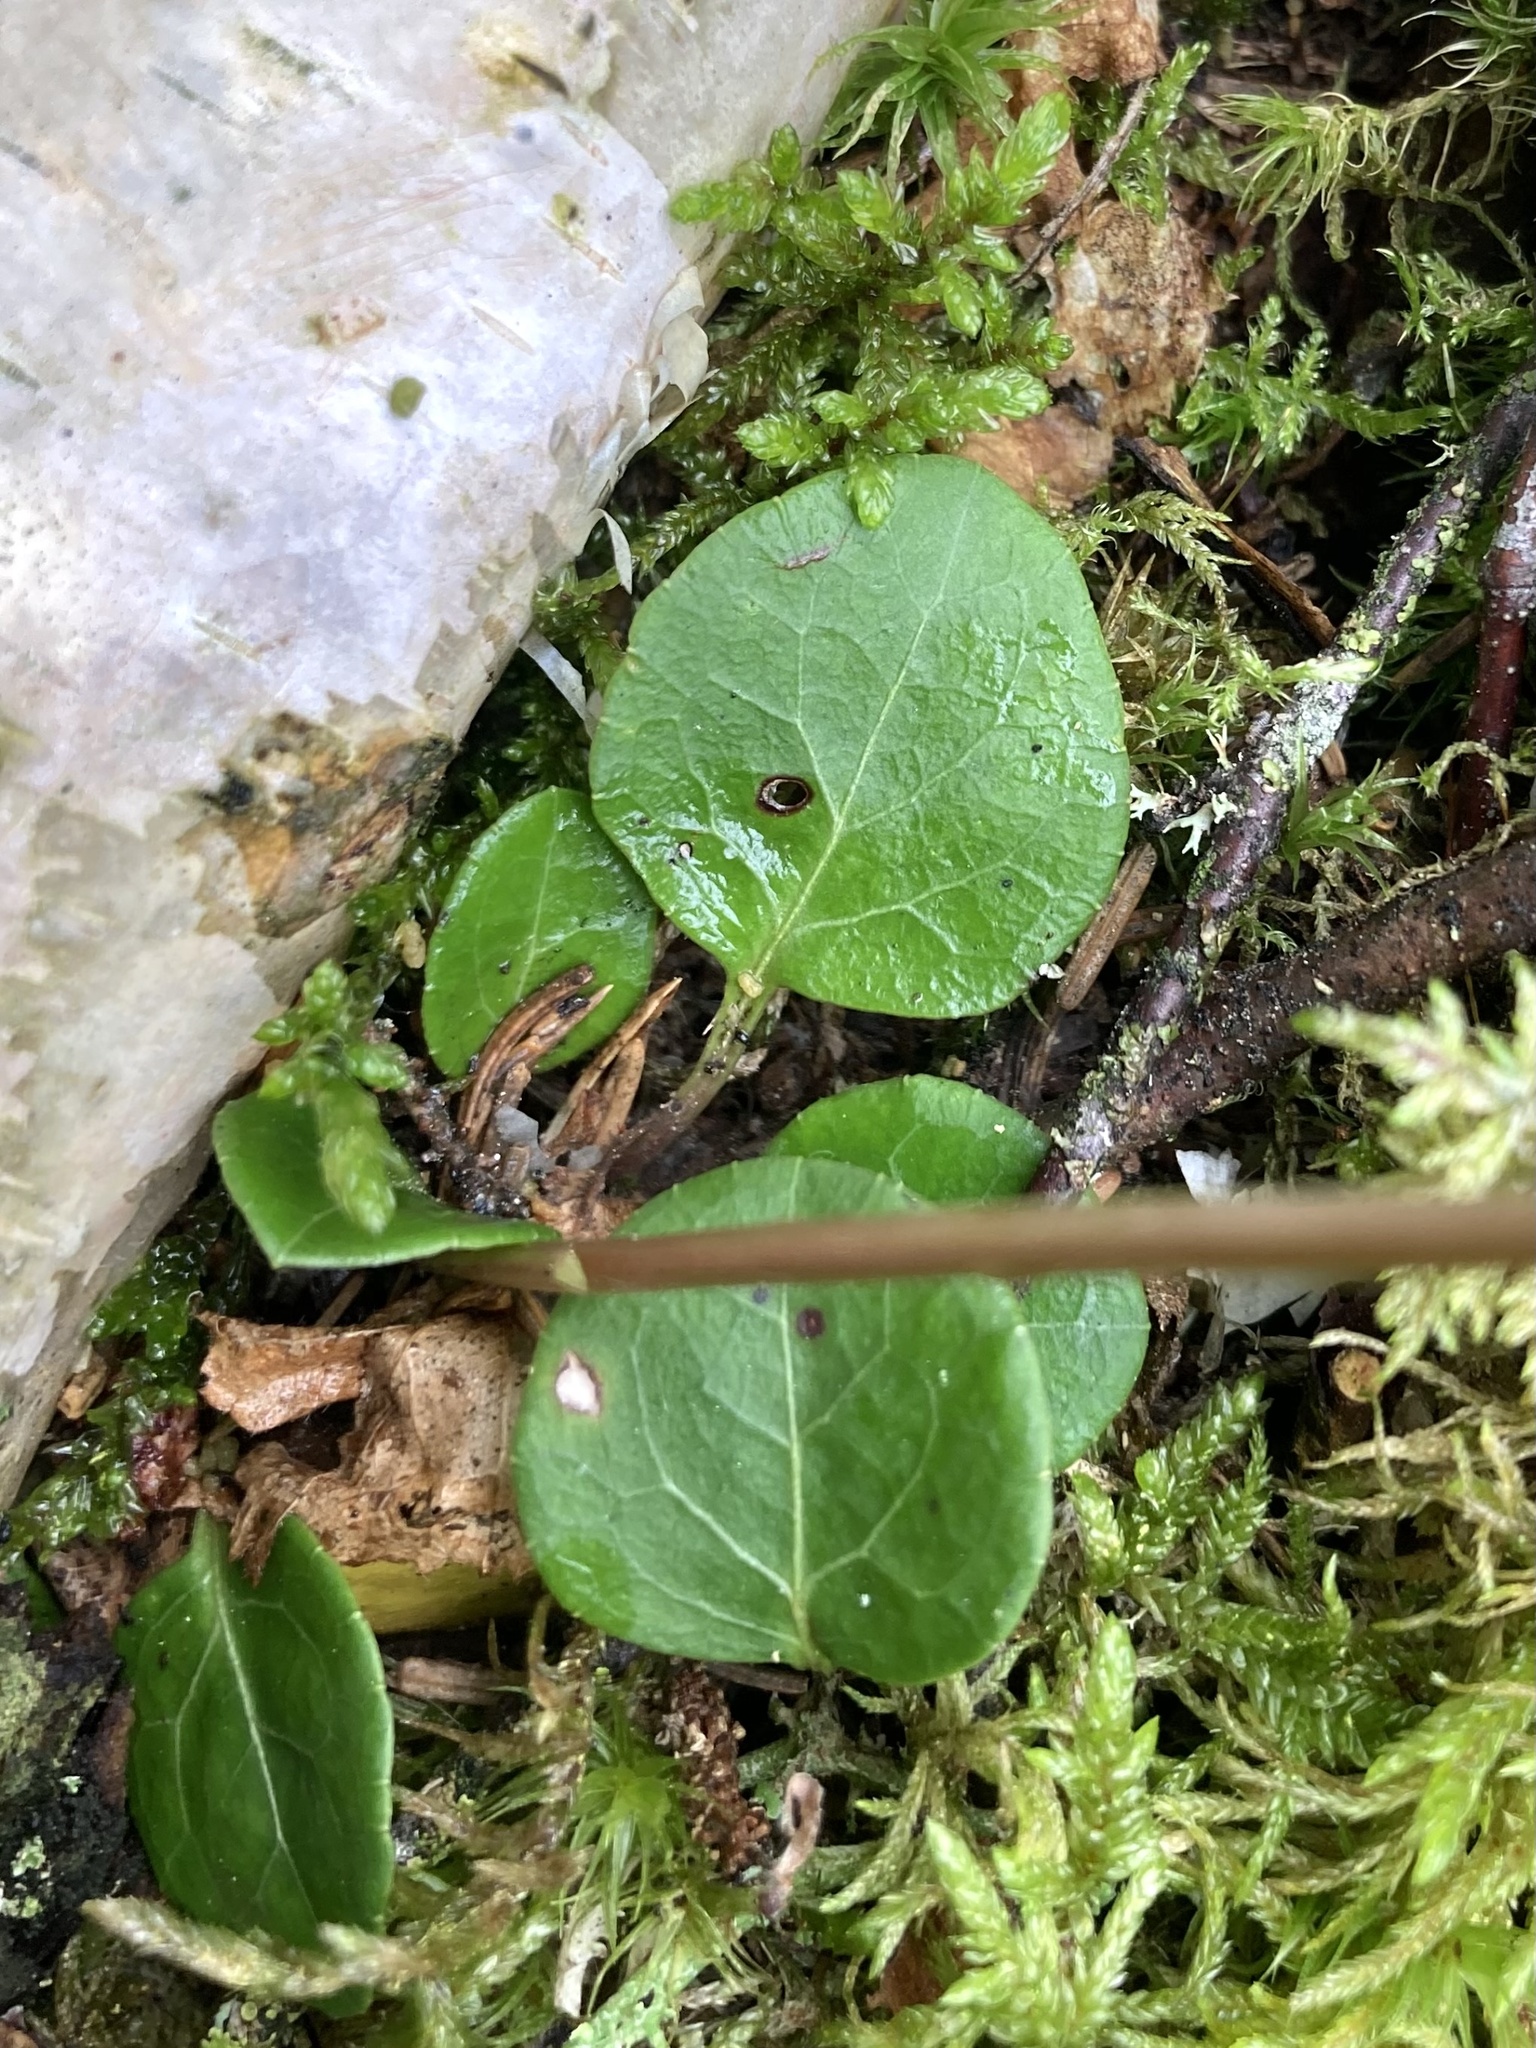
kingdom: Plantae
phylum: Tracheophyta
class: Magnoliopsida
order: Ericales
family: Ericaceae
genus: Pyrola
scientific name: Pyrola chlorantha
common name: Green wintergreen
